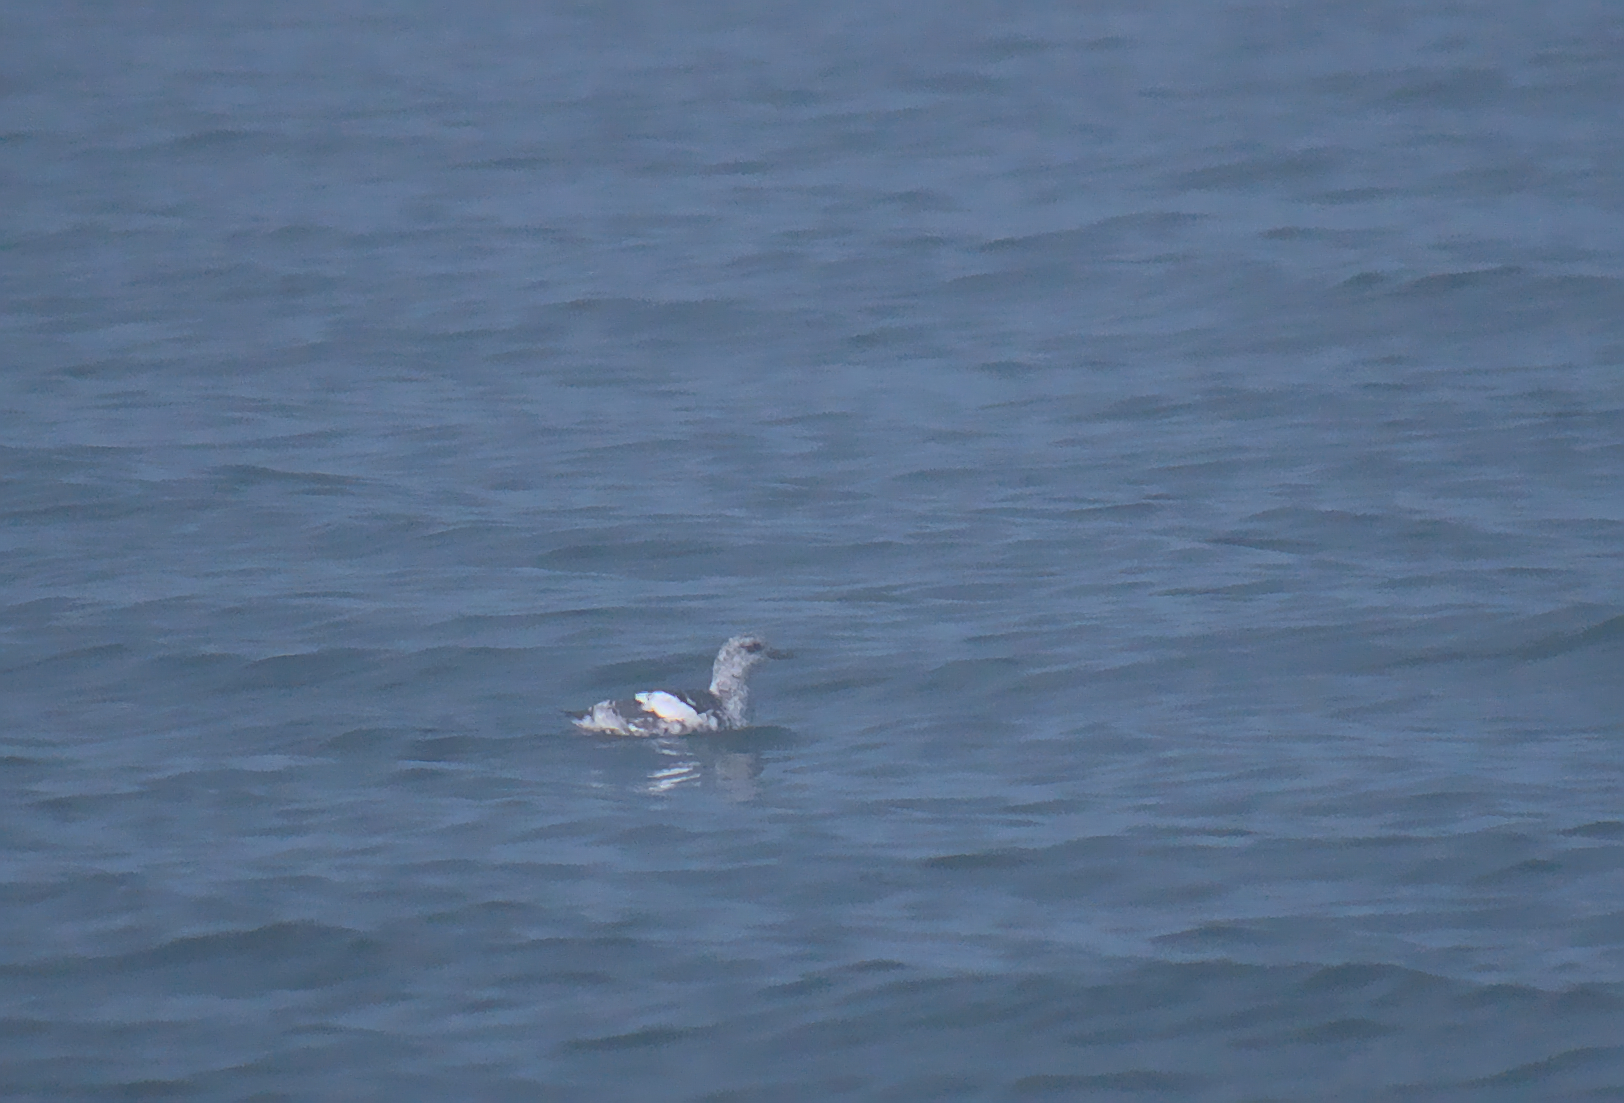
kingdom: Animalia
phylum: Chordata
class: Aves
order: Charadriiformes
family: Alcidae
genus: Cepphus
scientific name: Cepphus grylle
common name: Black guillemot
